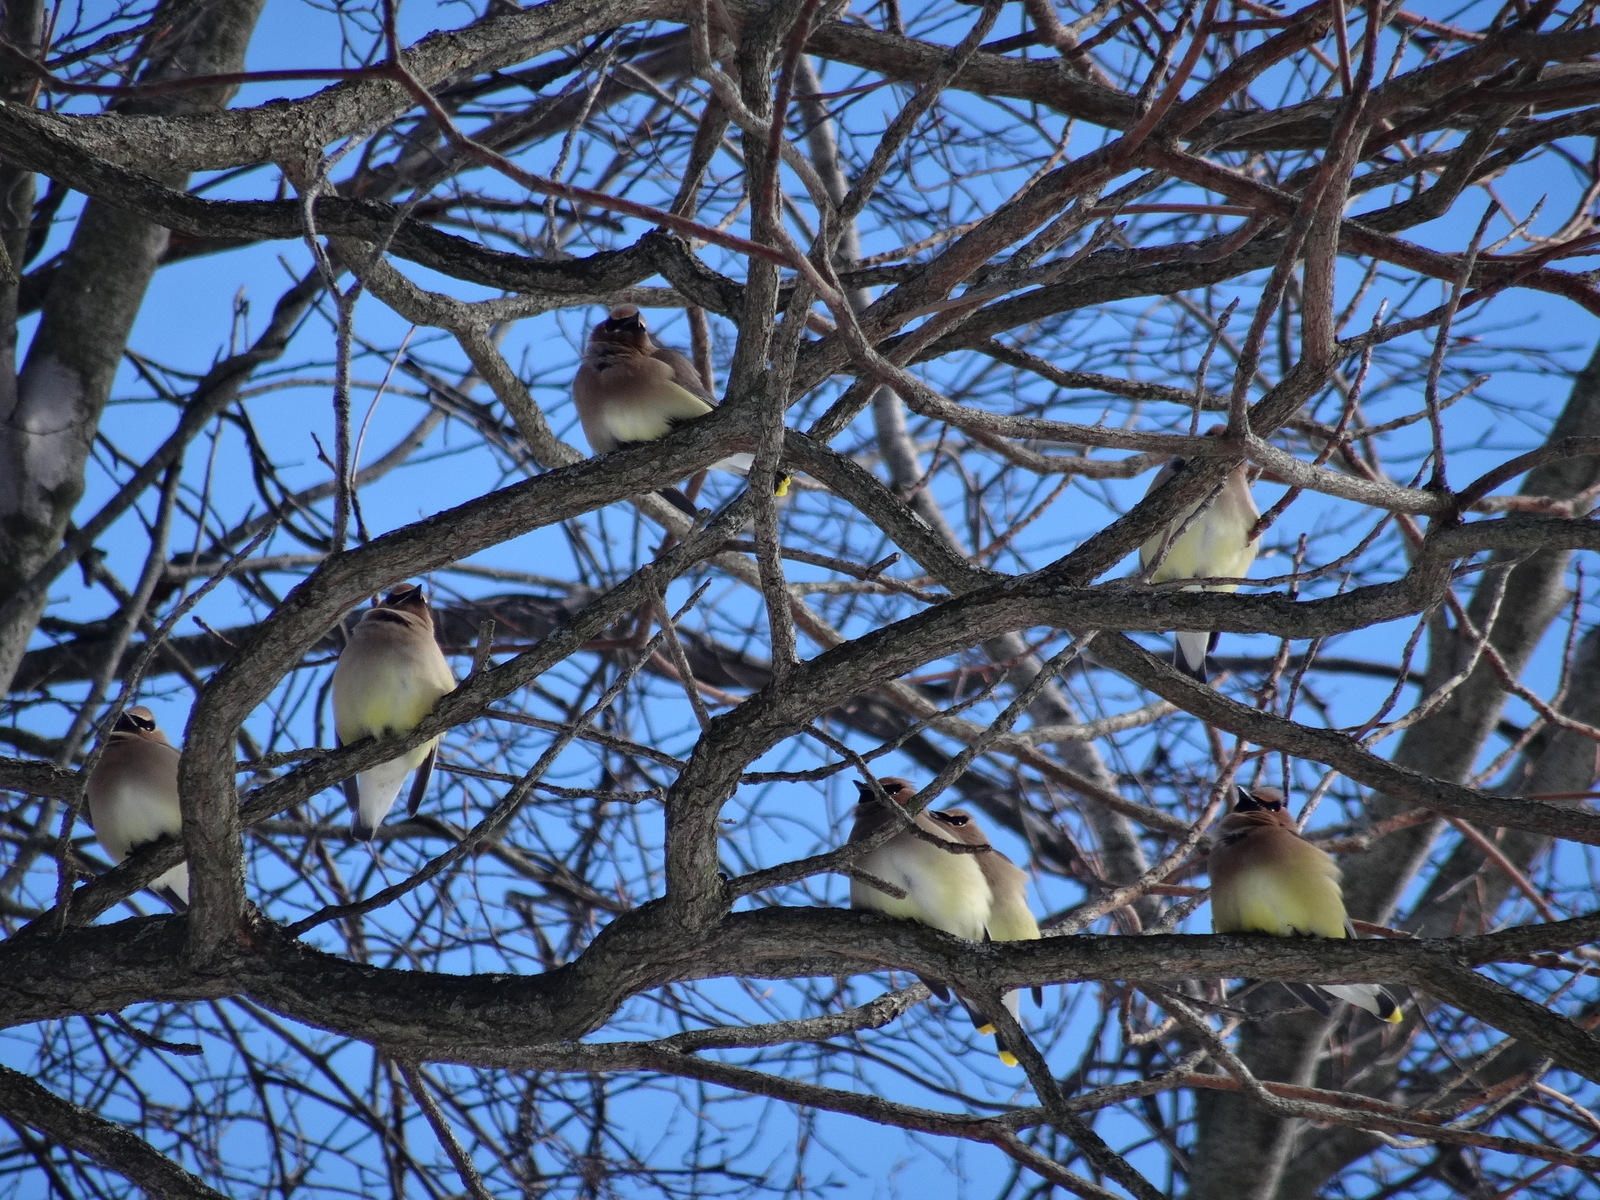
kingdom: Animalia
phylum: Chordata
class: Aves
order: Passeriformes
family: Bombycillidae
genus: Bombycilla
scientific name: Bombycilla cedrorum
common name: Cedar waxwing
